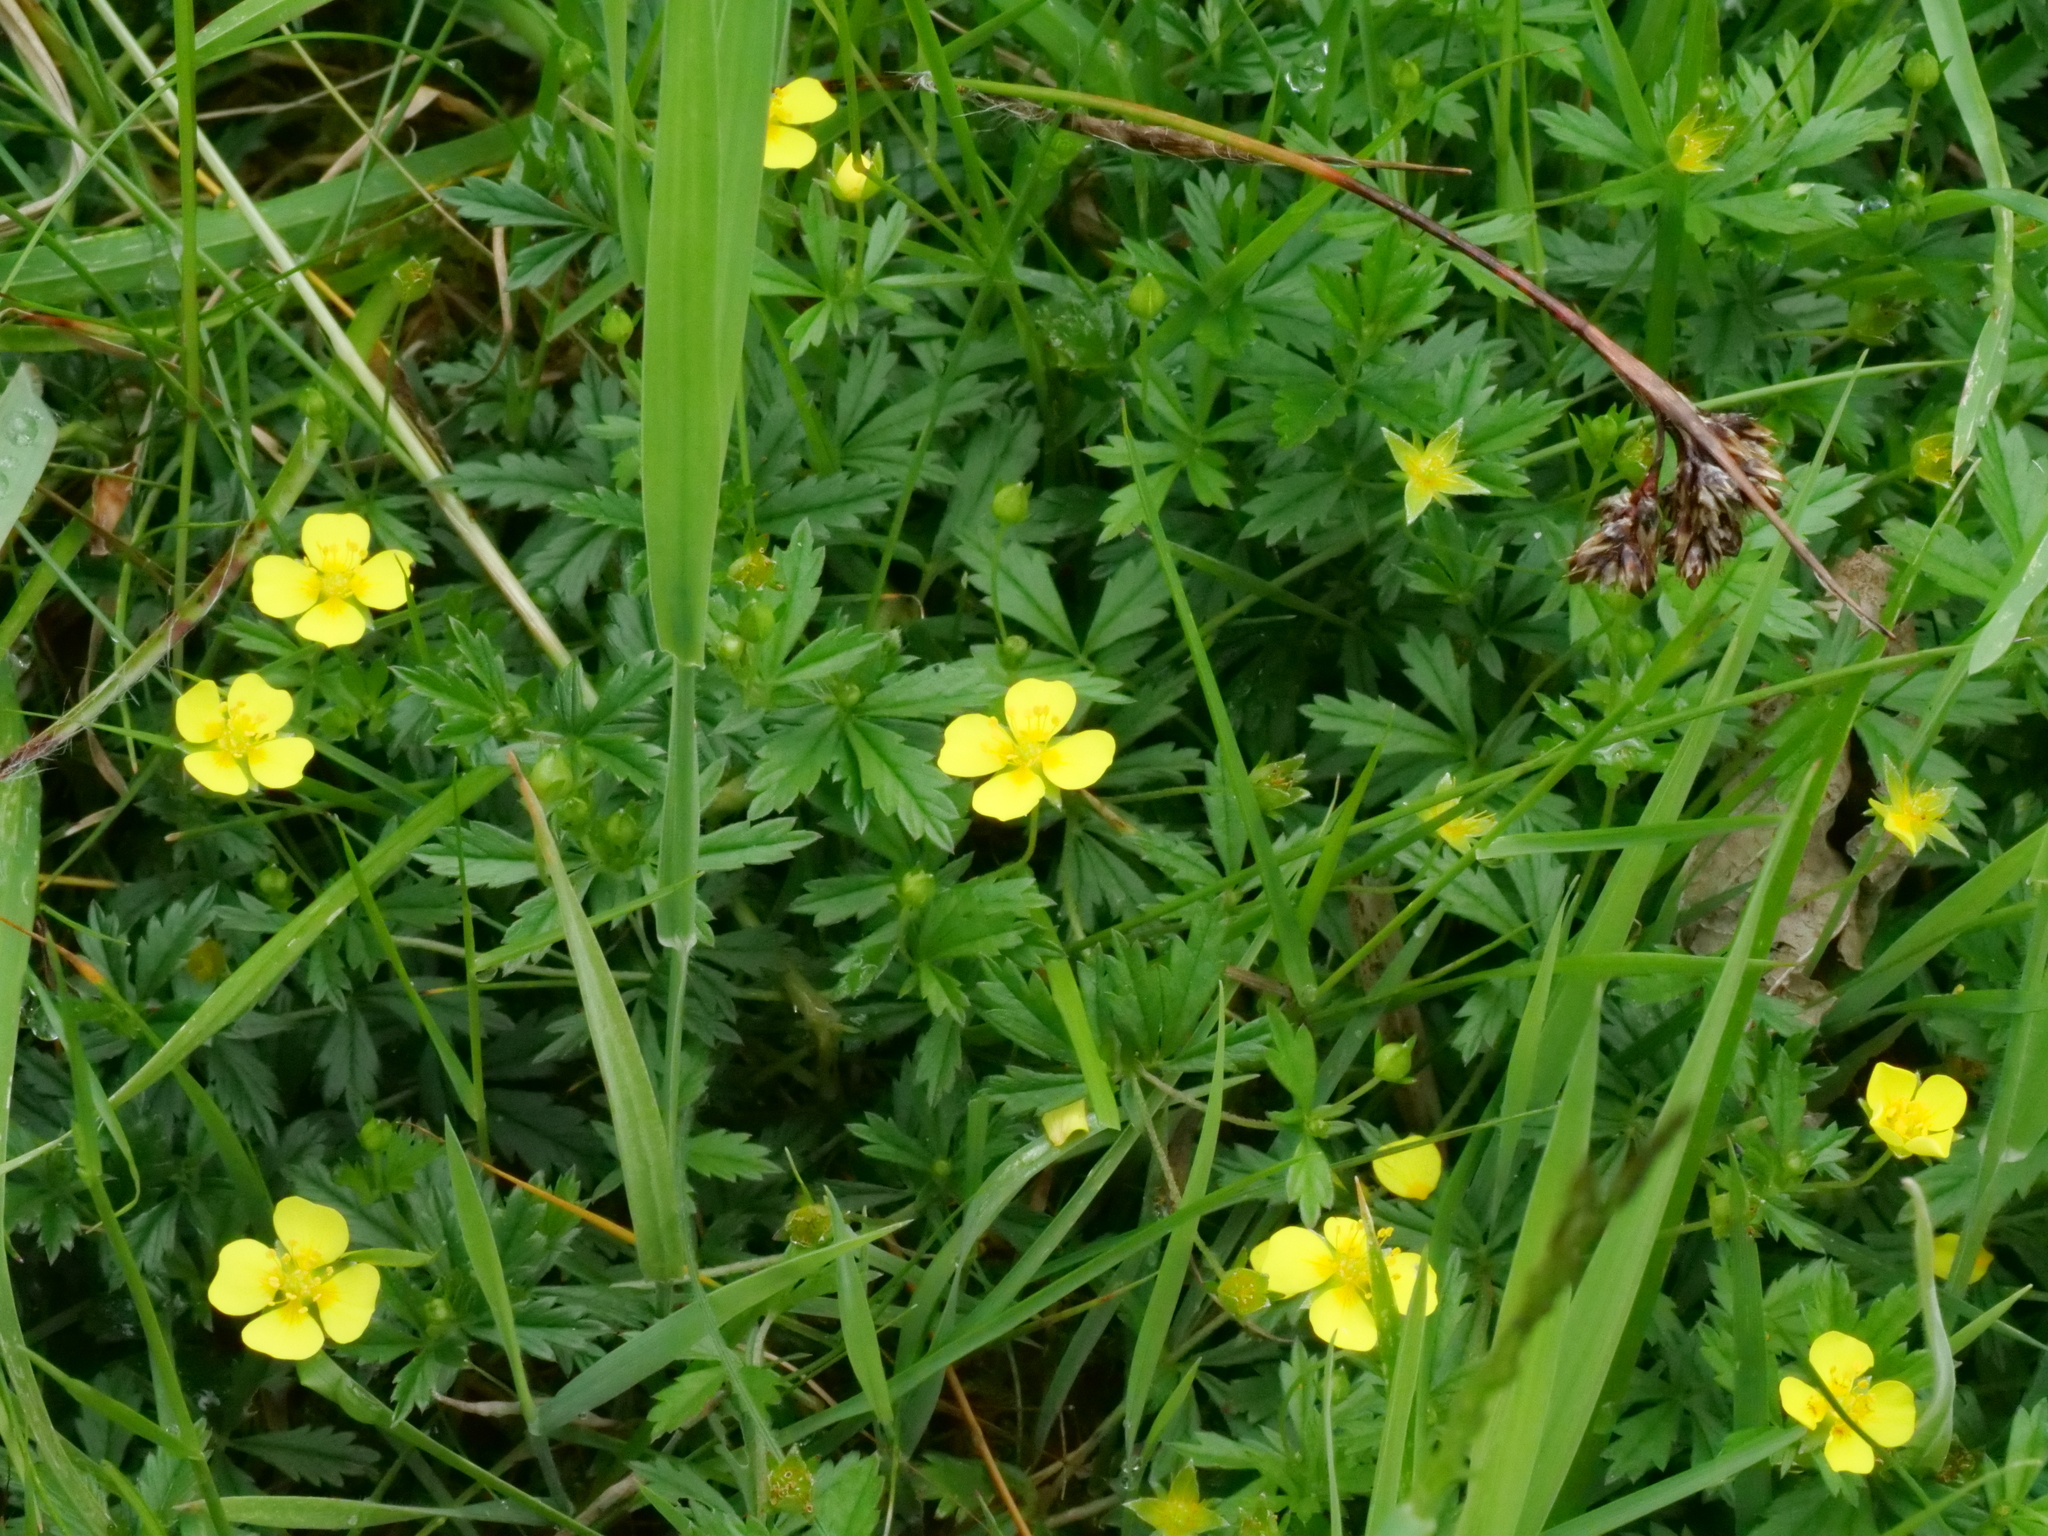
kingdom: Plantae
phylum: Tracheophyta
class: Magnoliopsida
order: Rosales
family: Rosaceae
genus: Potentilla
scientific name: Potentilla erecta
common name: Tormentil
